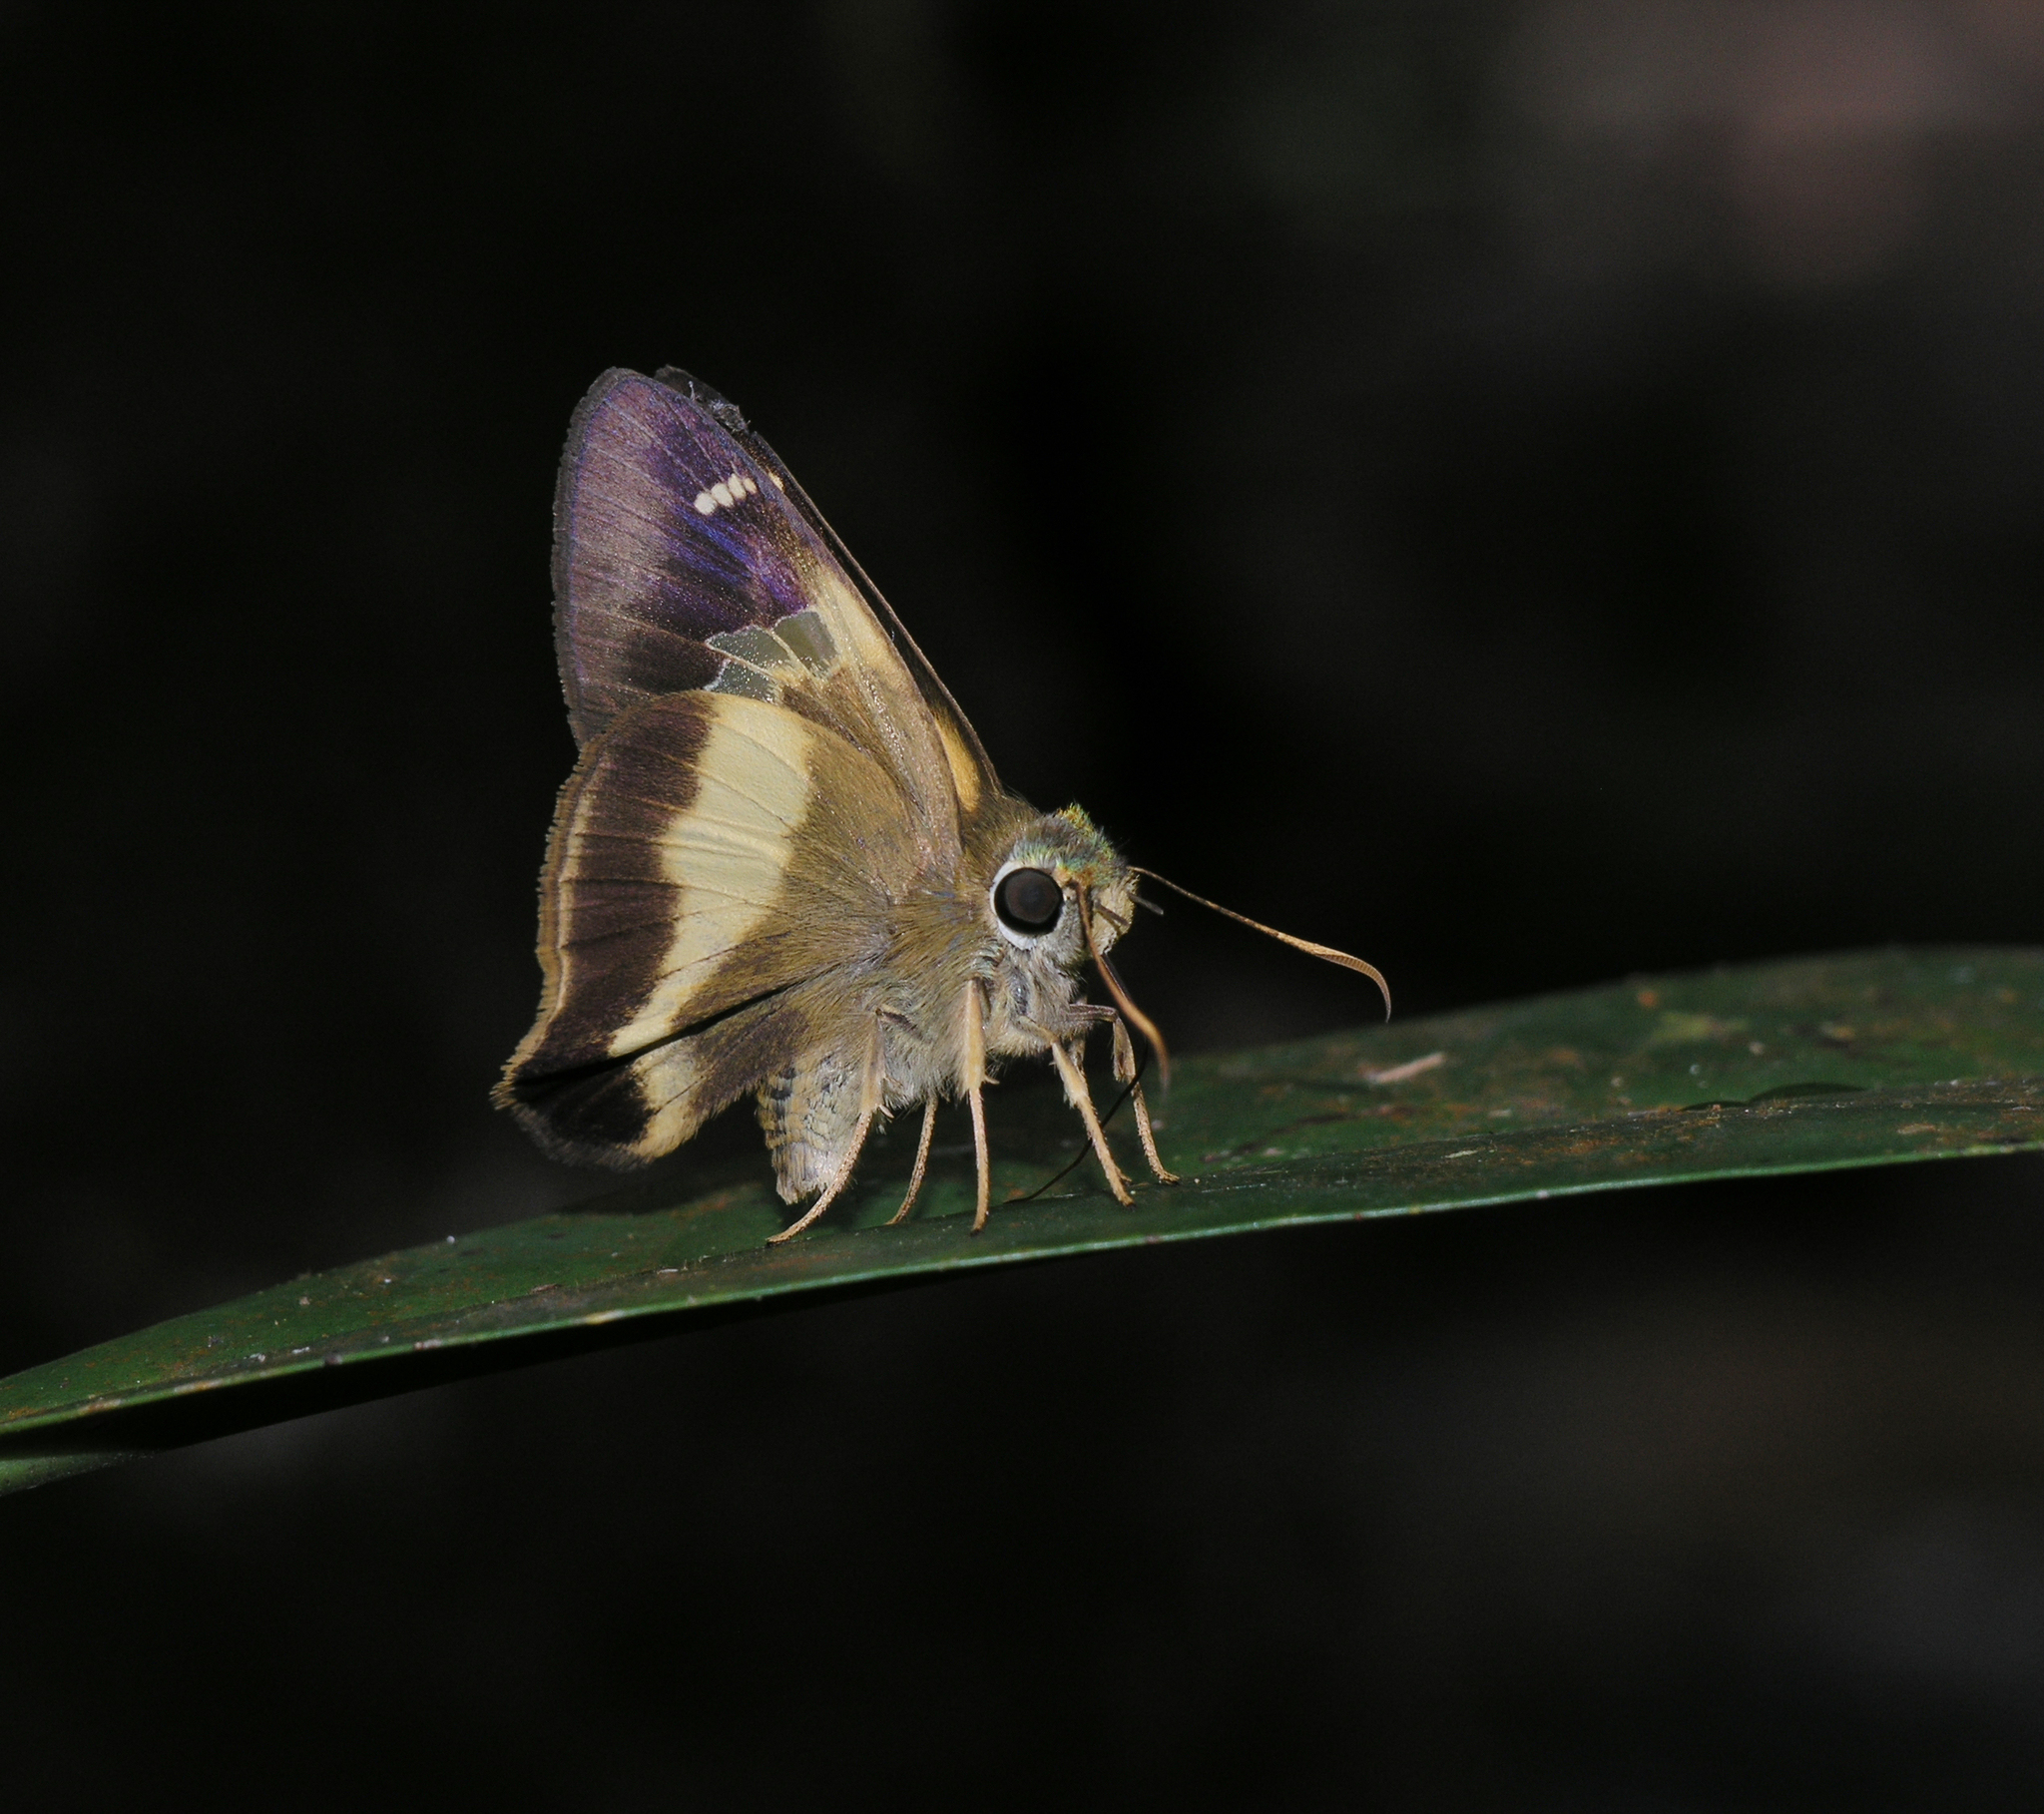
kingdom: Animalia
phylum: Arthropoda
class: Insecta
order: Lepidoptera
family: Hesperiidae
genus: Hasora
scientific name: Hasora schoenherr
